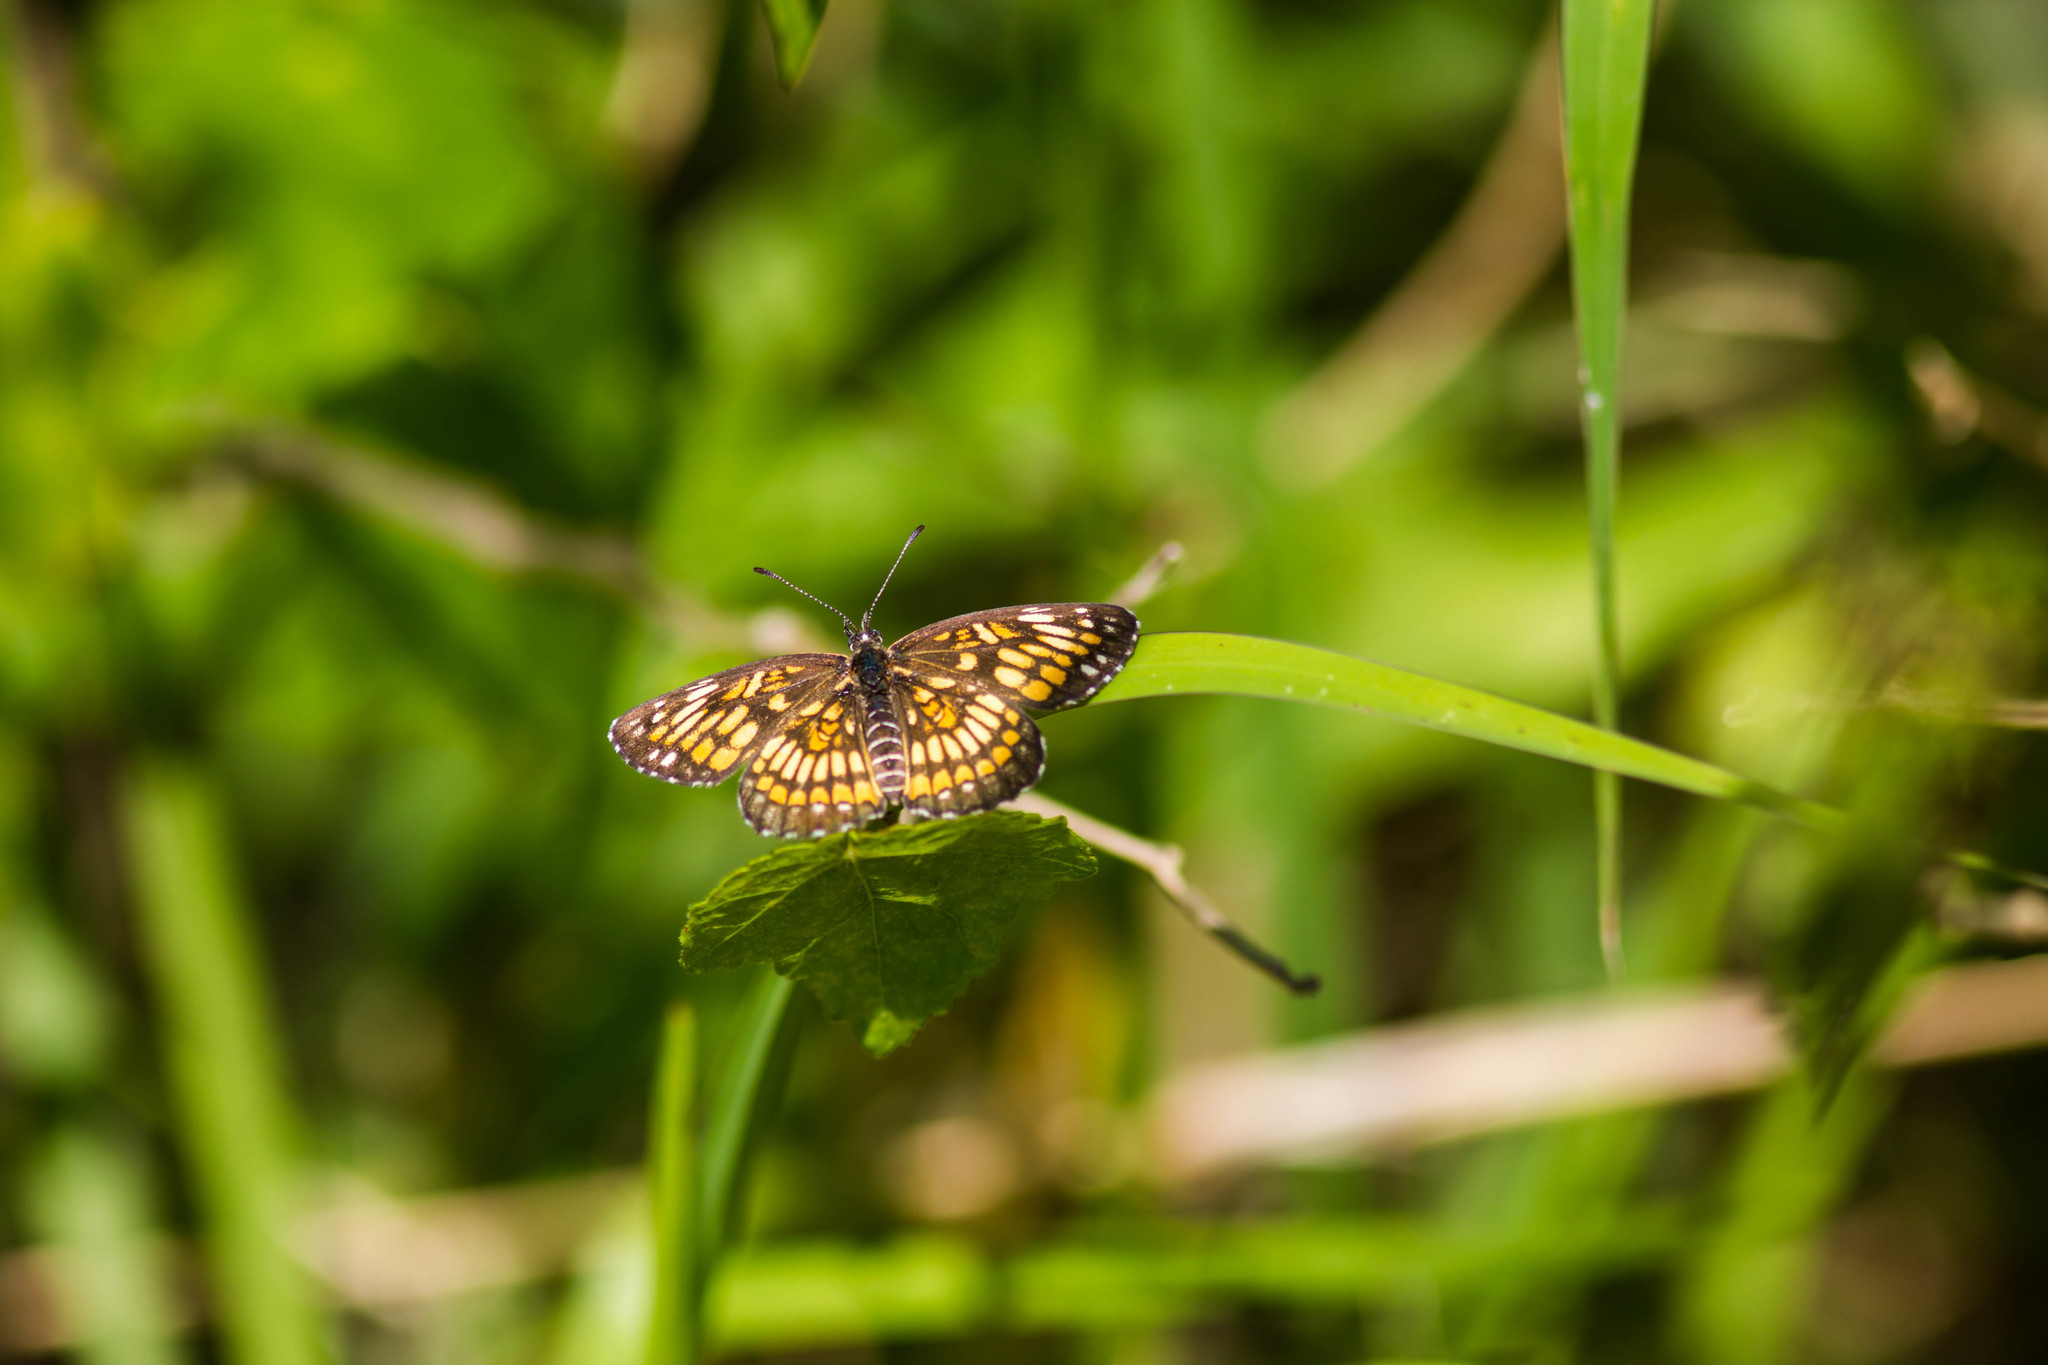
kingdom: Animalia
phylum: Arthropoda
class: Insecta
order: Lepidoptera
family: Nymphalidae
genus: Thessalia
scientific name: Thessalia theona
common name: Nymphalid moth
